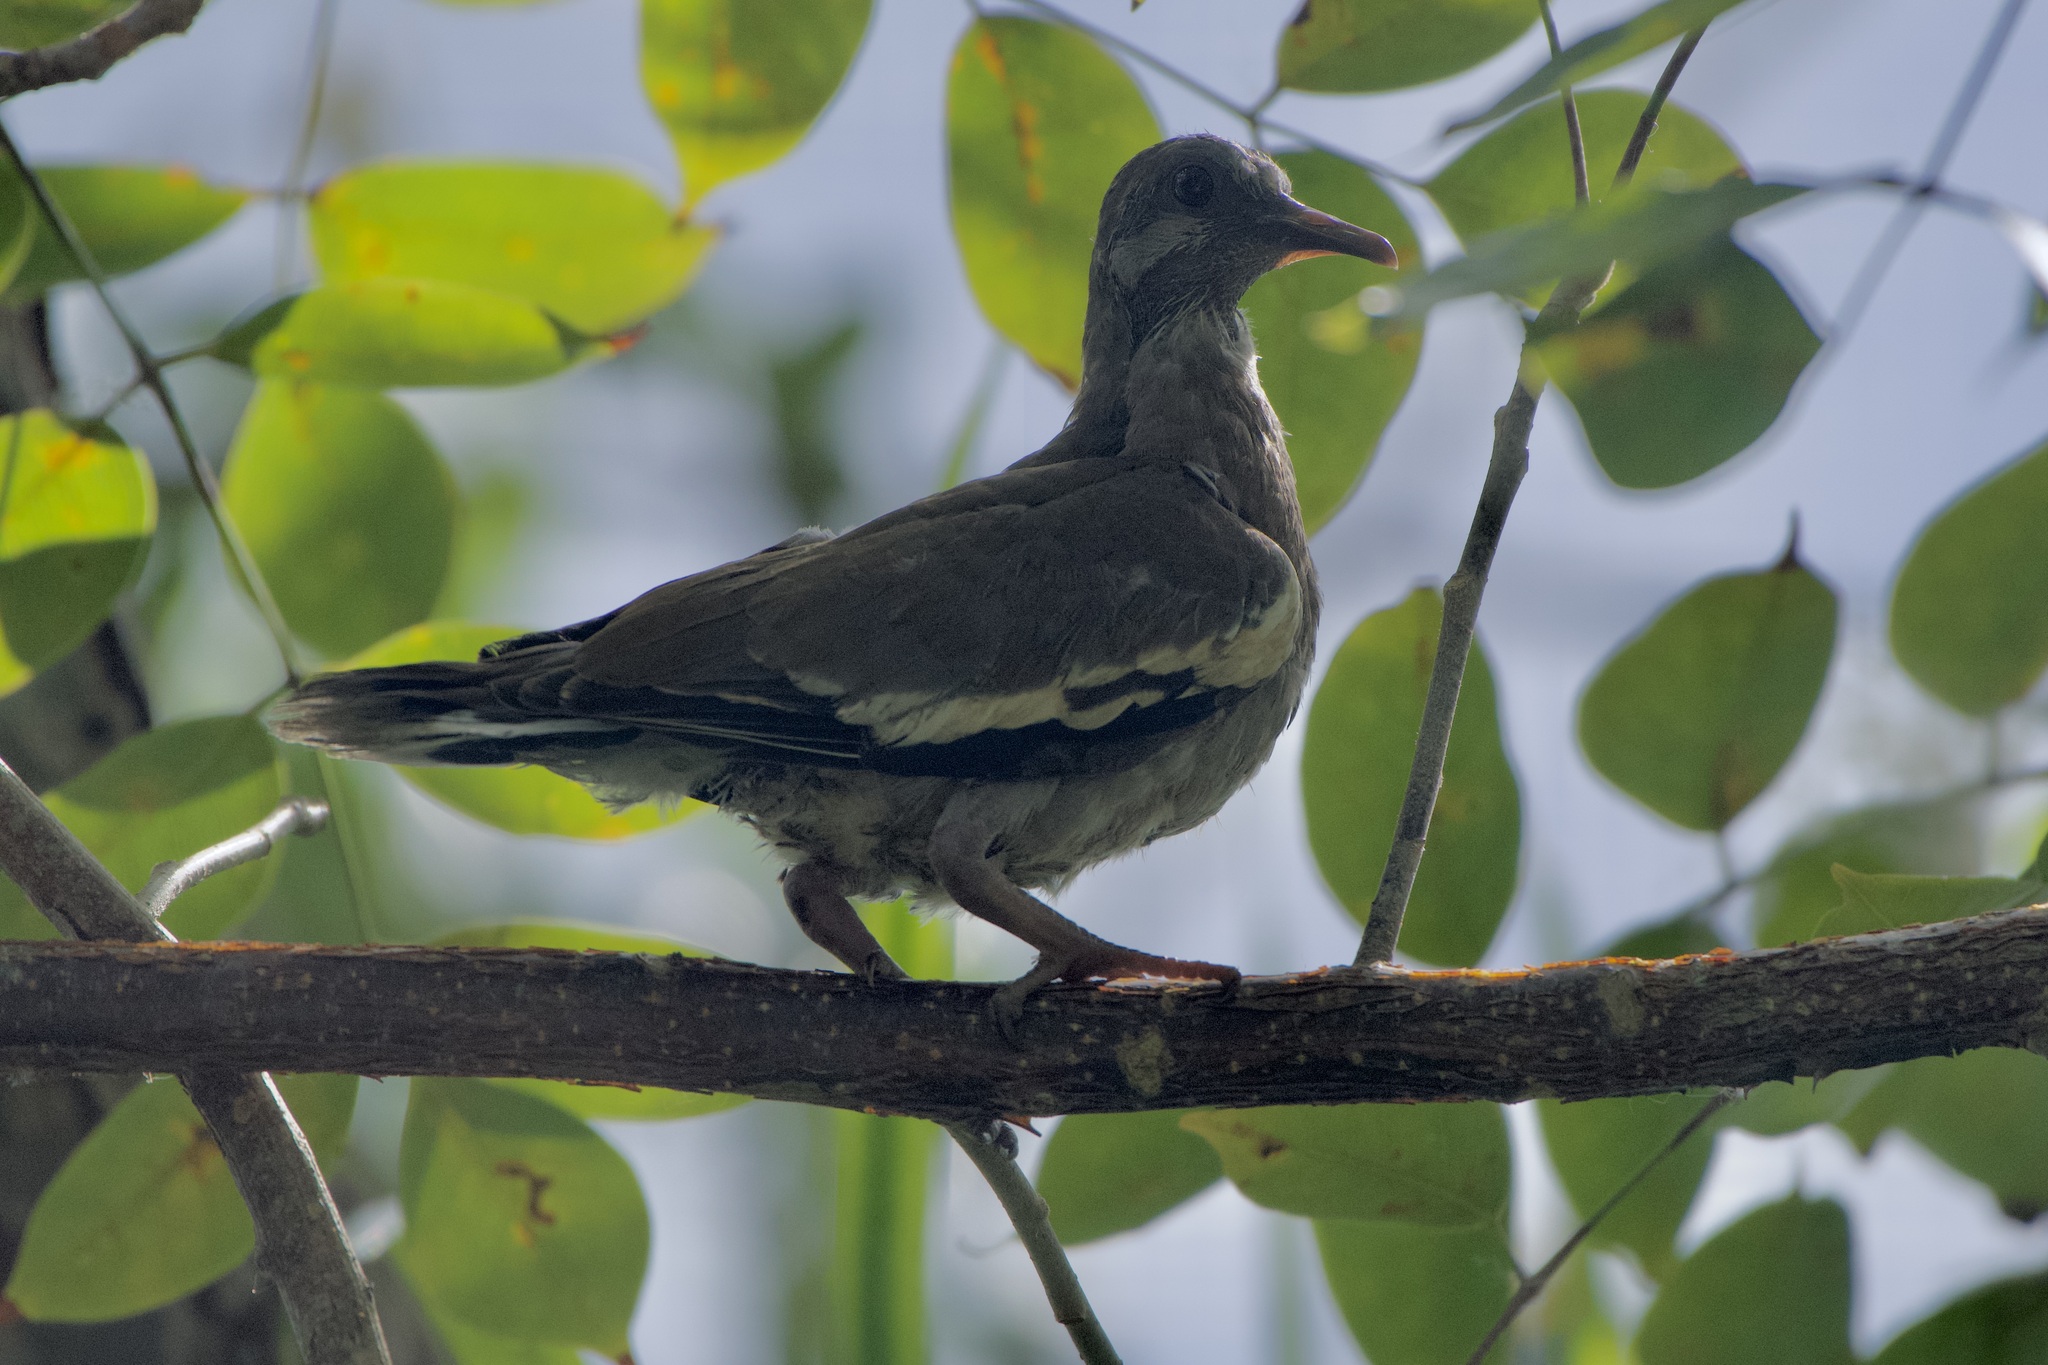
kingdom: Animalia
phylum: Chordata
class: Aves
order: Columbiformes
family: Columbidae
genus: Zenaida
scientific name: Zenaida asiatica
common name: White-winged dove
